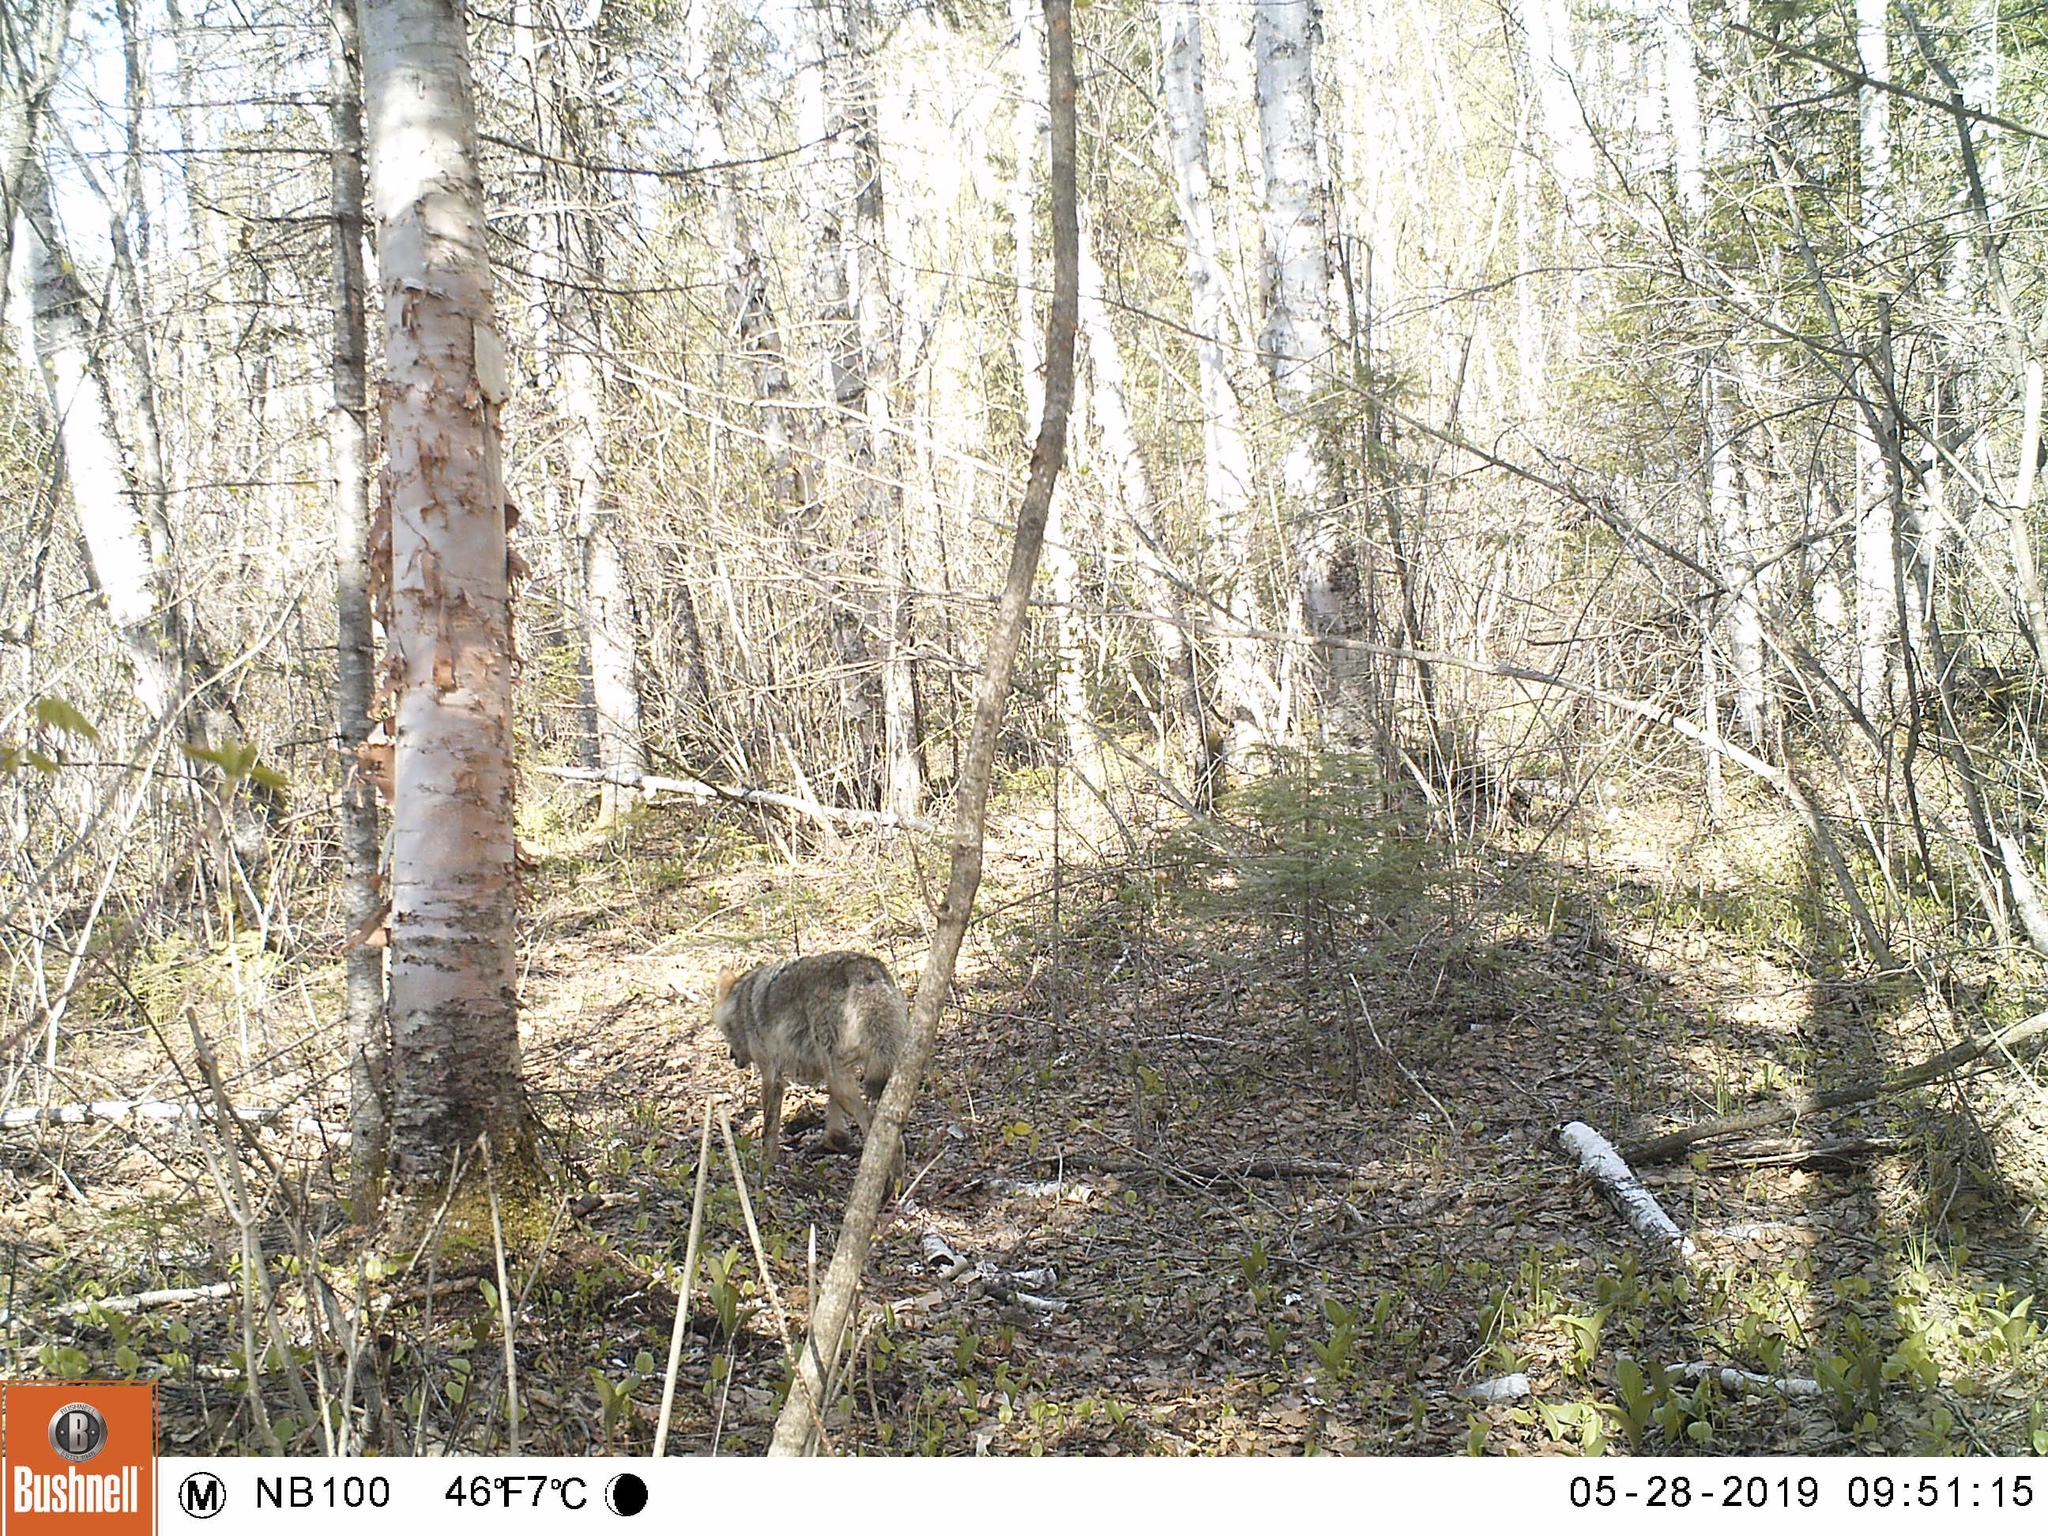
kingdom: Animalia
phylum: Chordata
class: Mammalia
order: Carnivora
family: Canidae
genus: Canis
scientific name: Canis latrans
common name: Coyote
